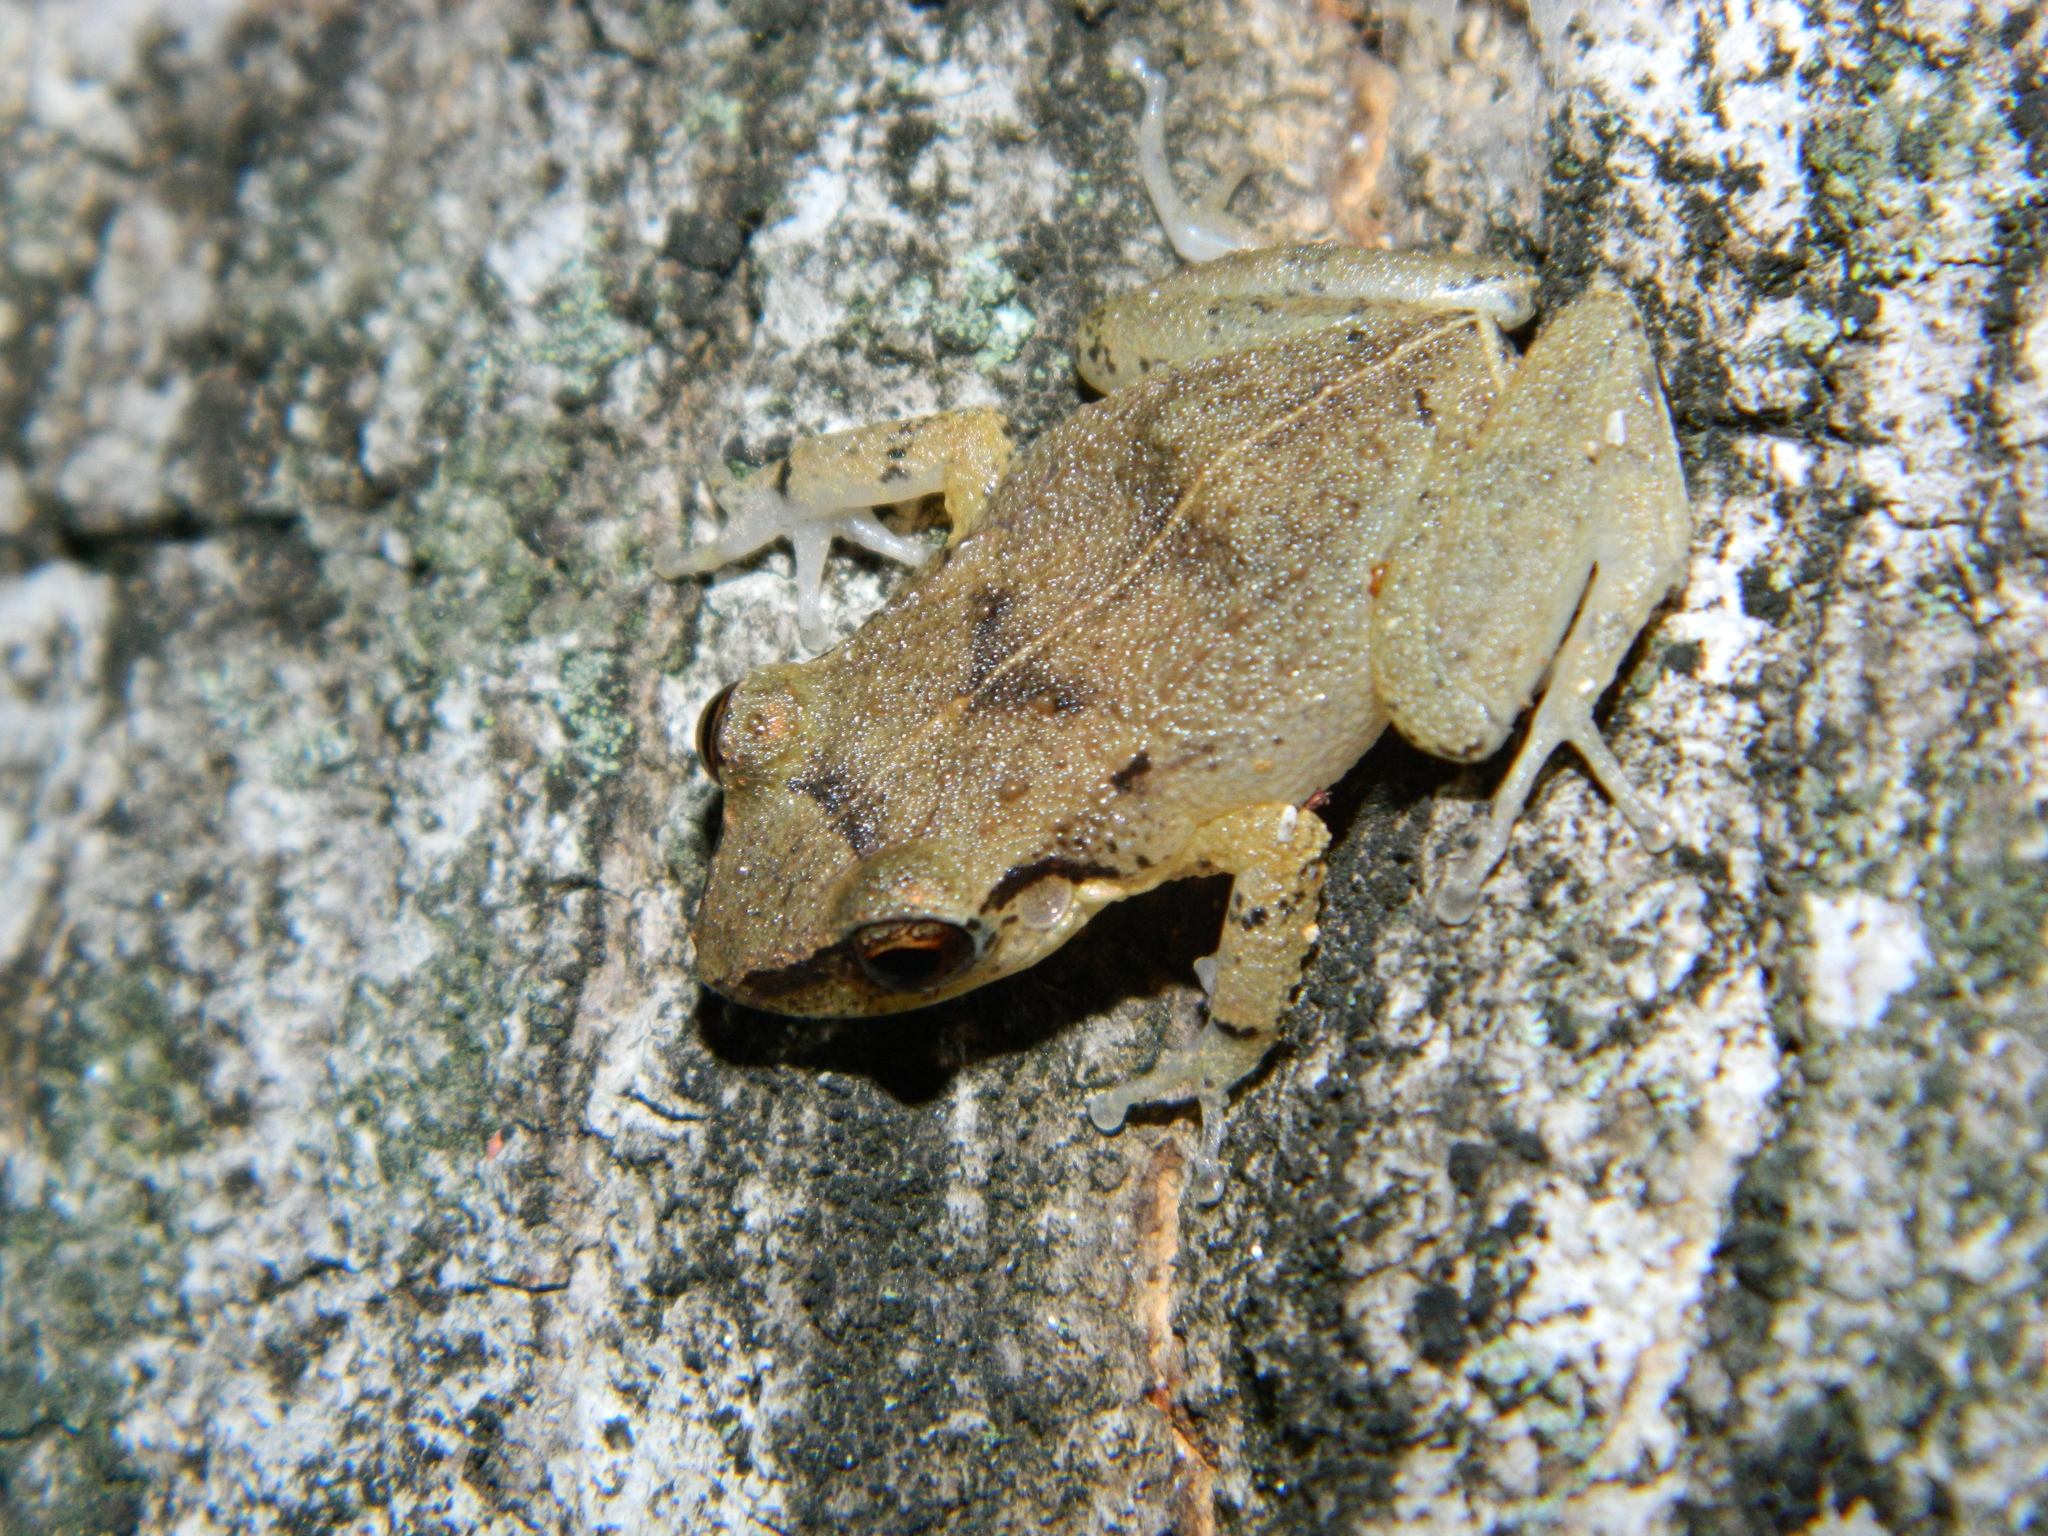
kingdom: Animalia
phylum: Chordata
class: Amphibia
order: Anura
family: Eleutherodactylidae
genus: Eleutherodactylus
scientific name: Eleutherodactylus johnstonei
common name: Johnstone's robber frog
